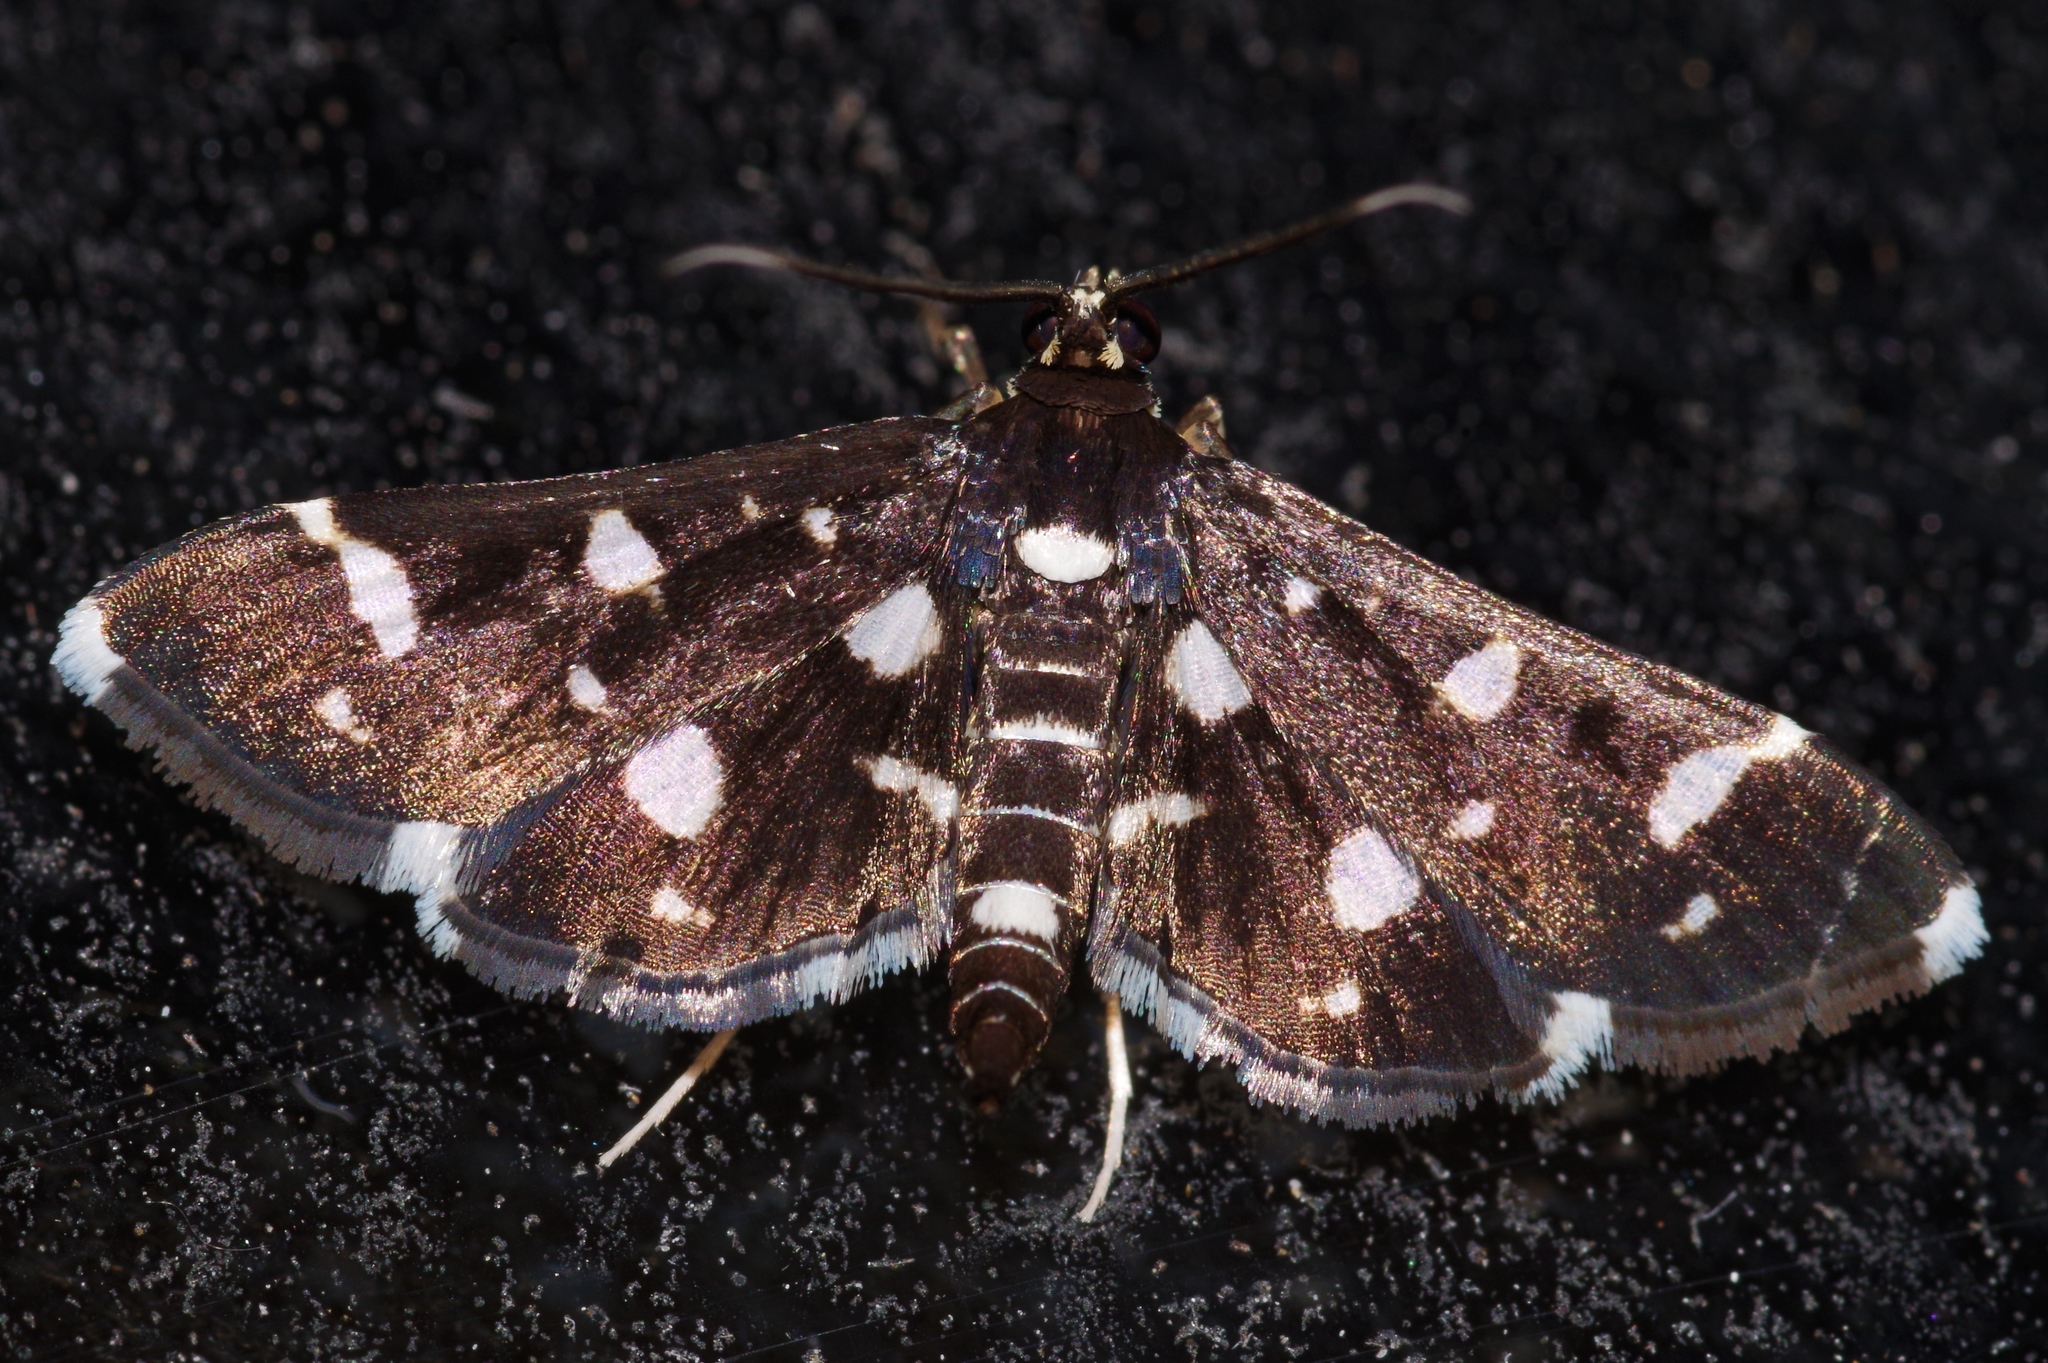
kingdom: Animalia
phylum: Arthropoda
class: Insecta
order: Lepidoptera
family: Crambidae
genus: Bocchoris
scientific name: Bocchoris inspersalis
